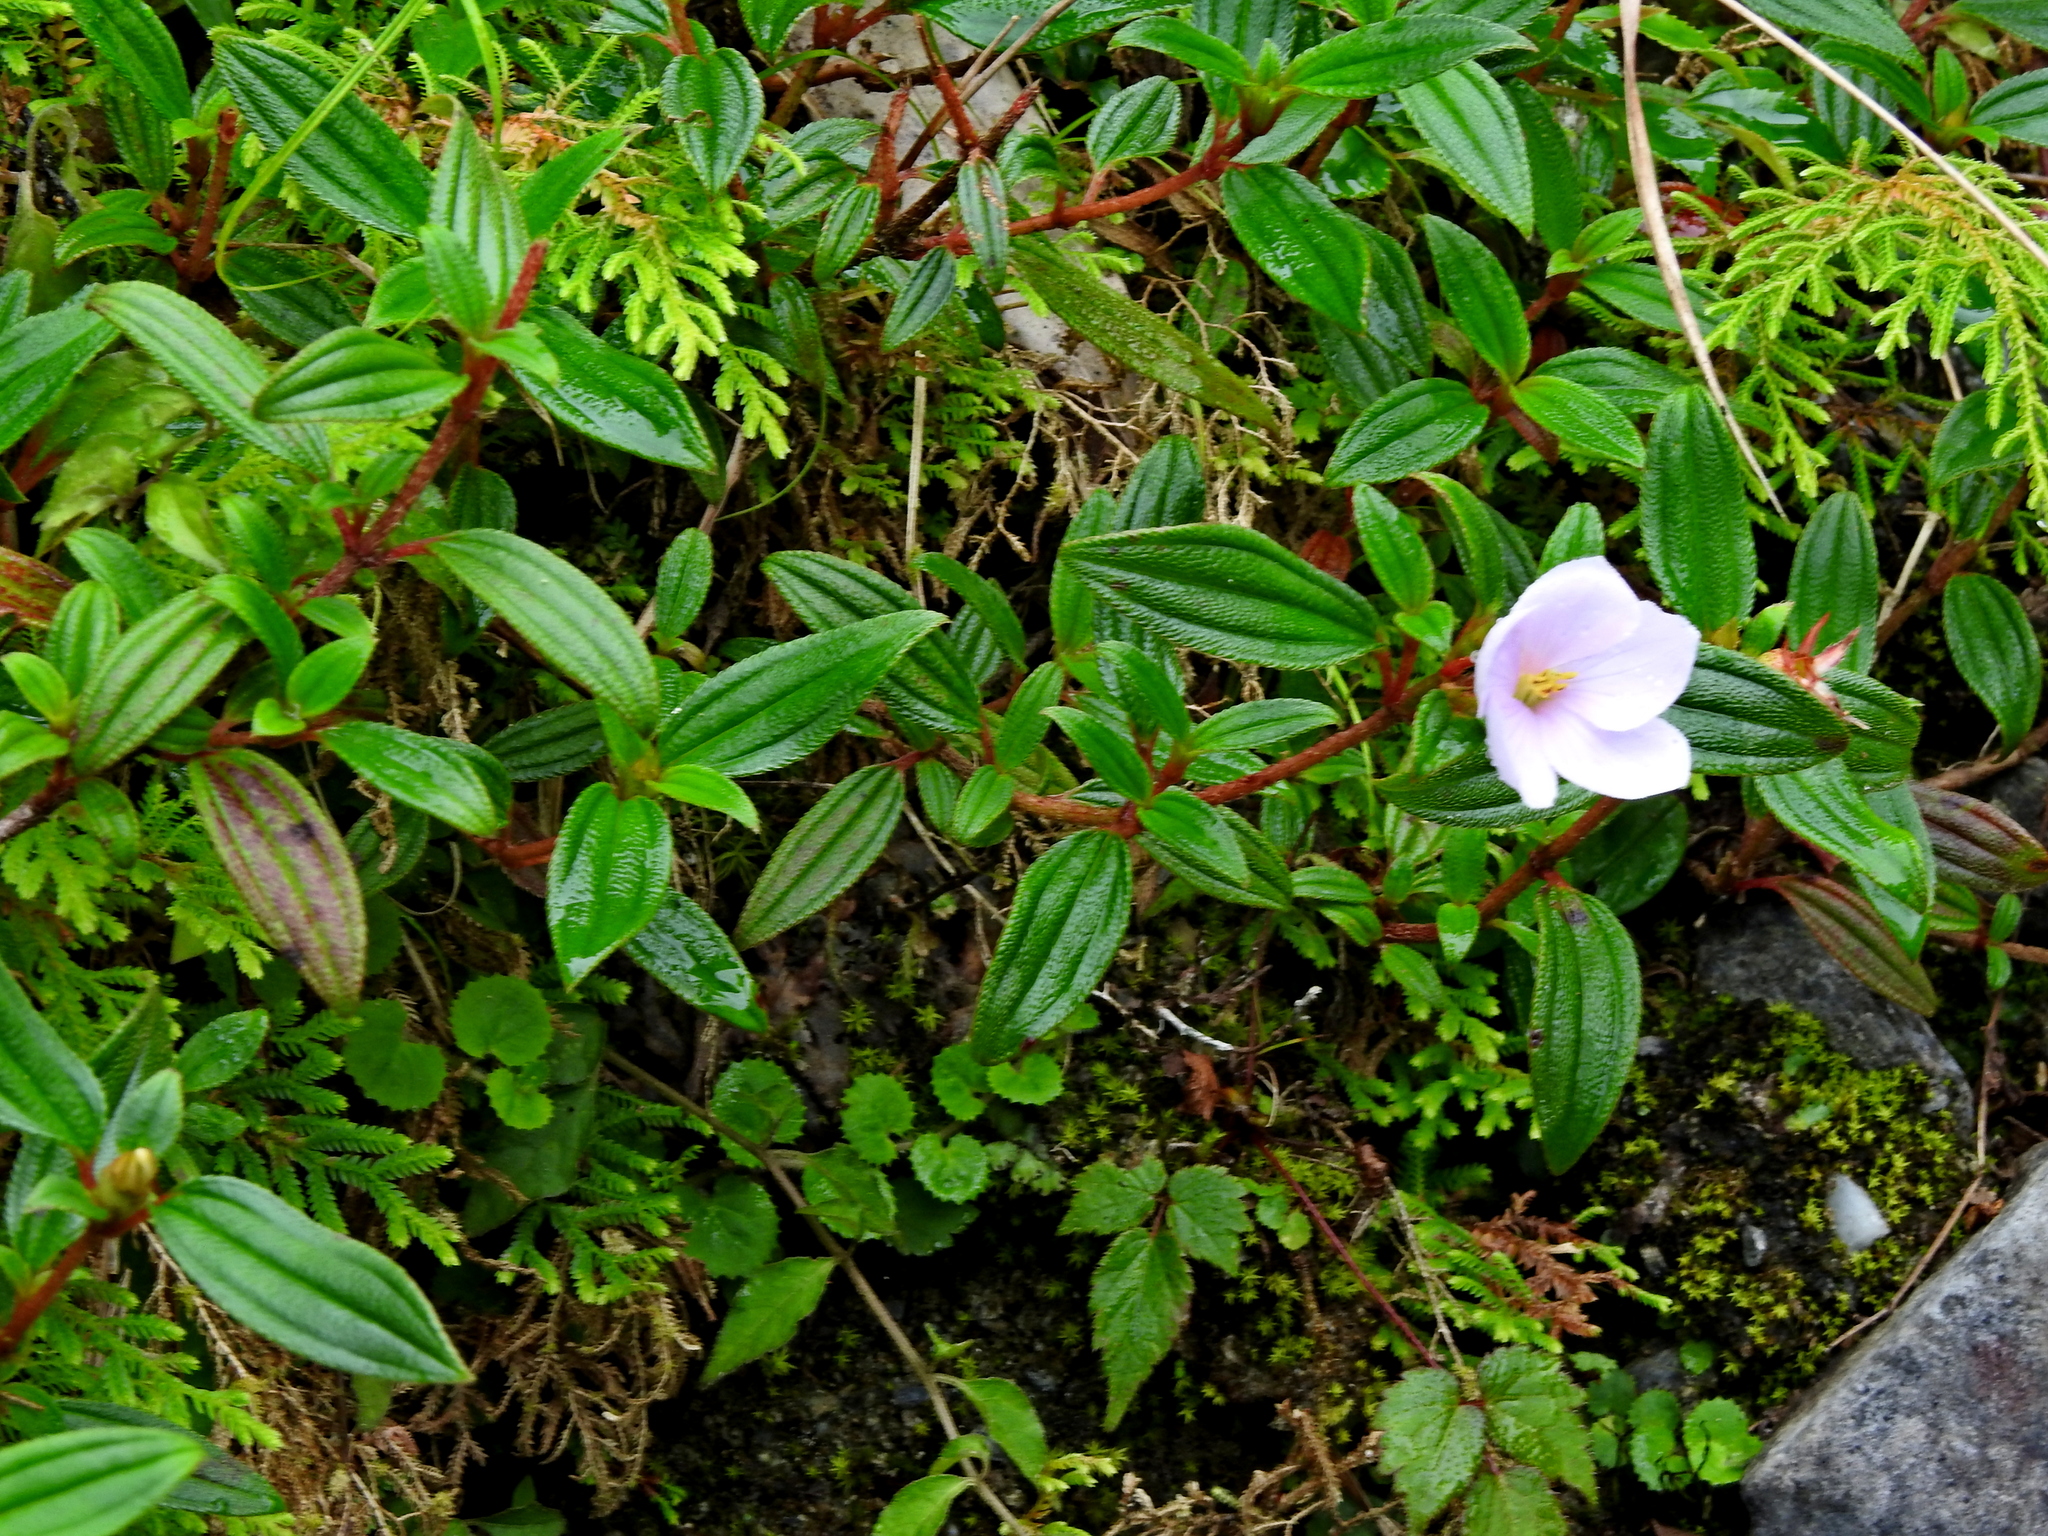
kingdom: Plantae
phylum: Tracheophyta
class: Magnoliopsida
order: Myrtales
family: Melastomataceae
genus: Melastoma
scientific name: Melastoma scaberrima
